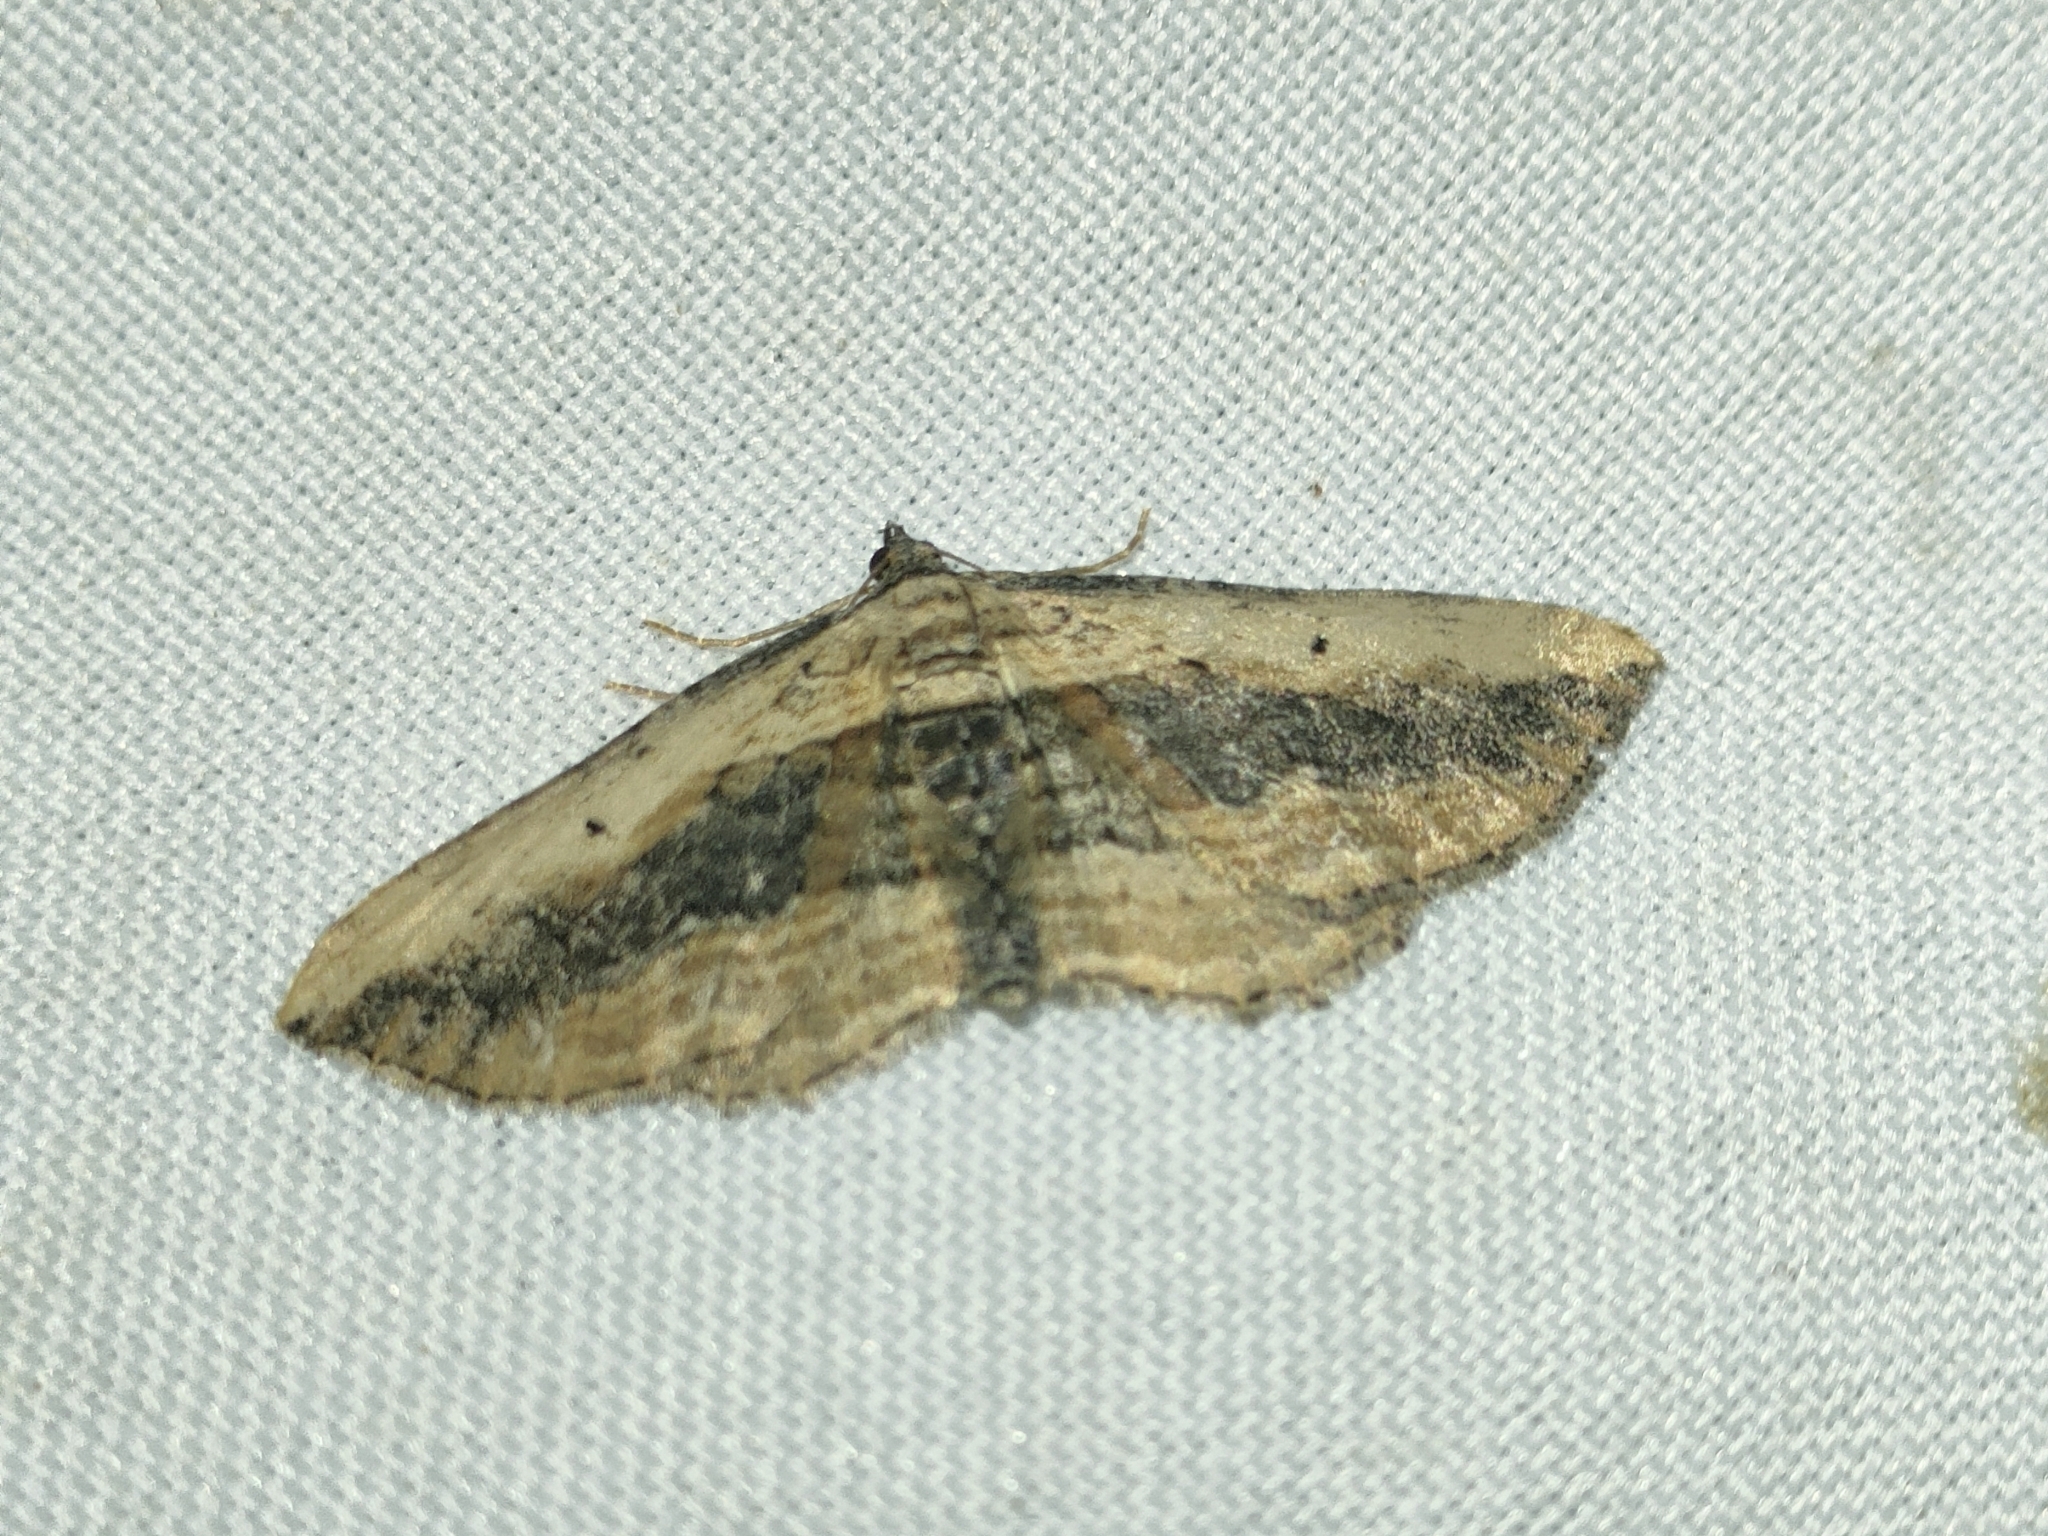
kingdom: Animalia
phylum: Arthropoda
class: Insecta
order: Lepidoptera
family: Geometridae
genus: Horisme
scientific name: Horisme vitalbata
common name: Small waved umber
